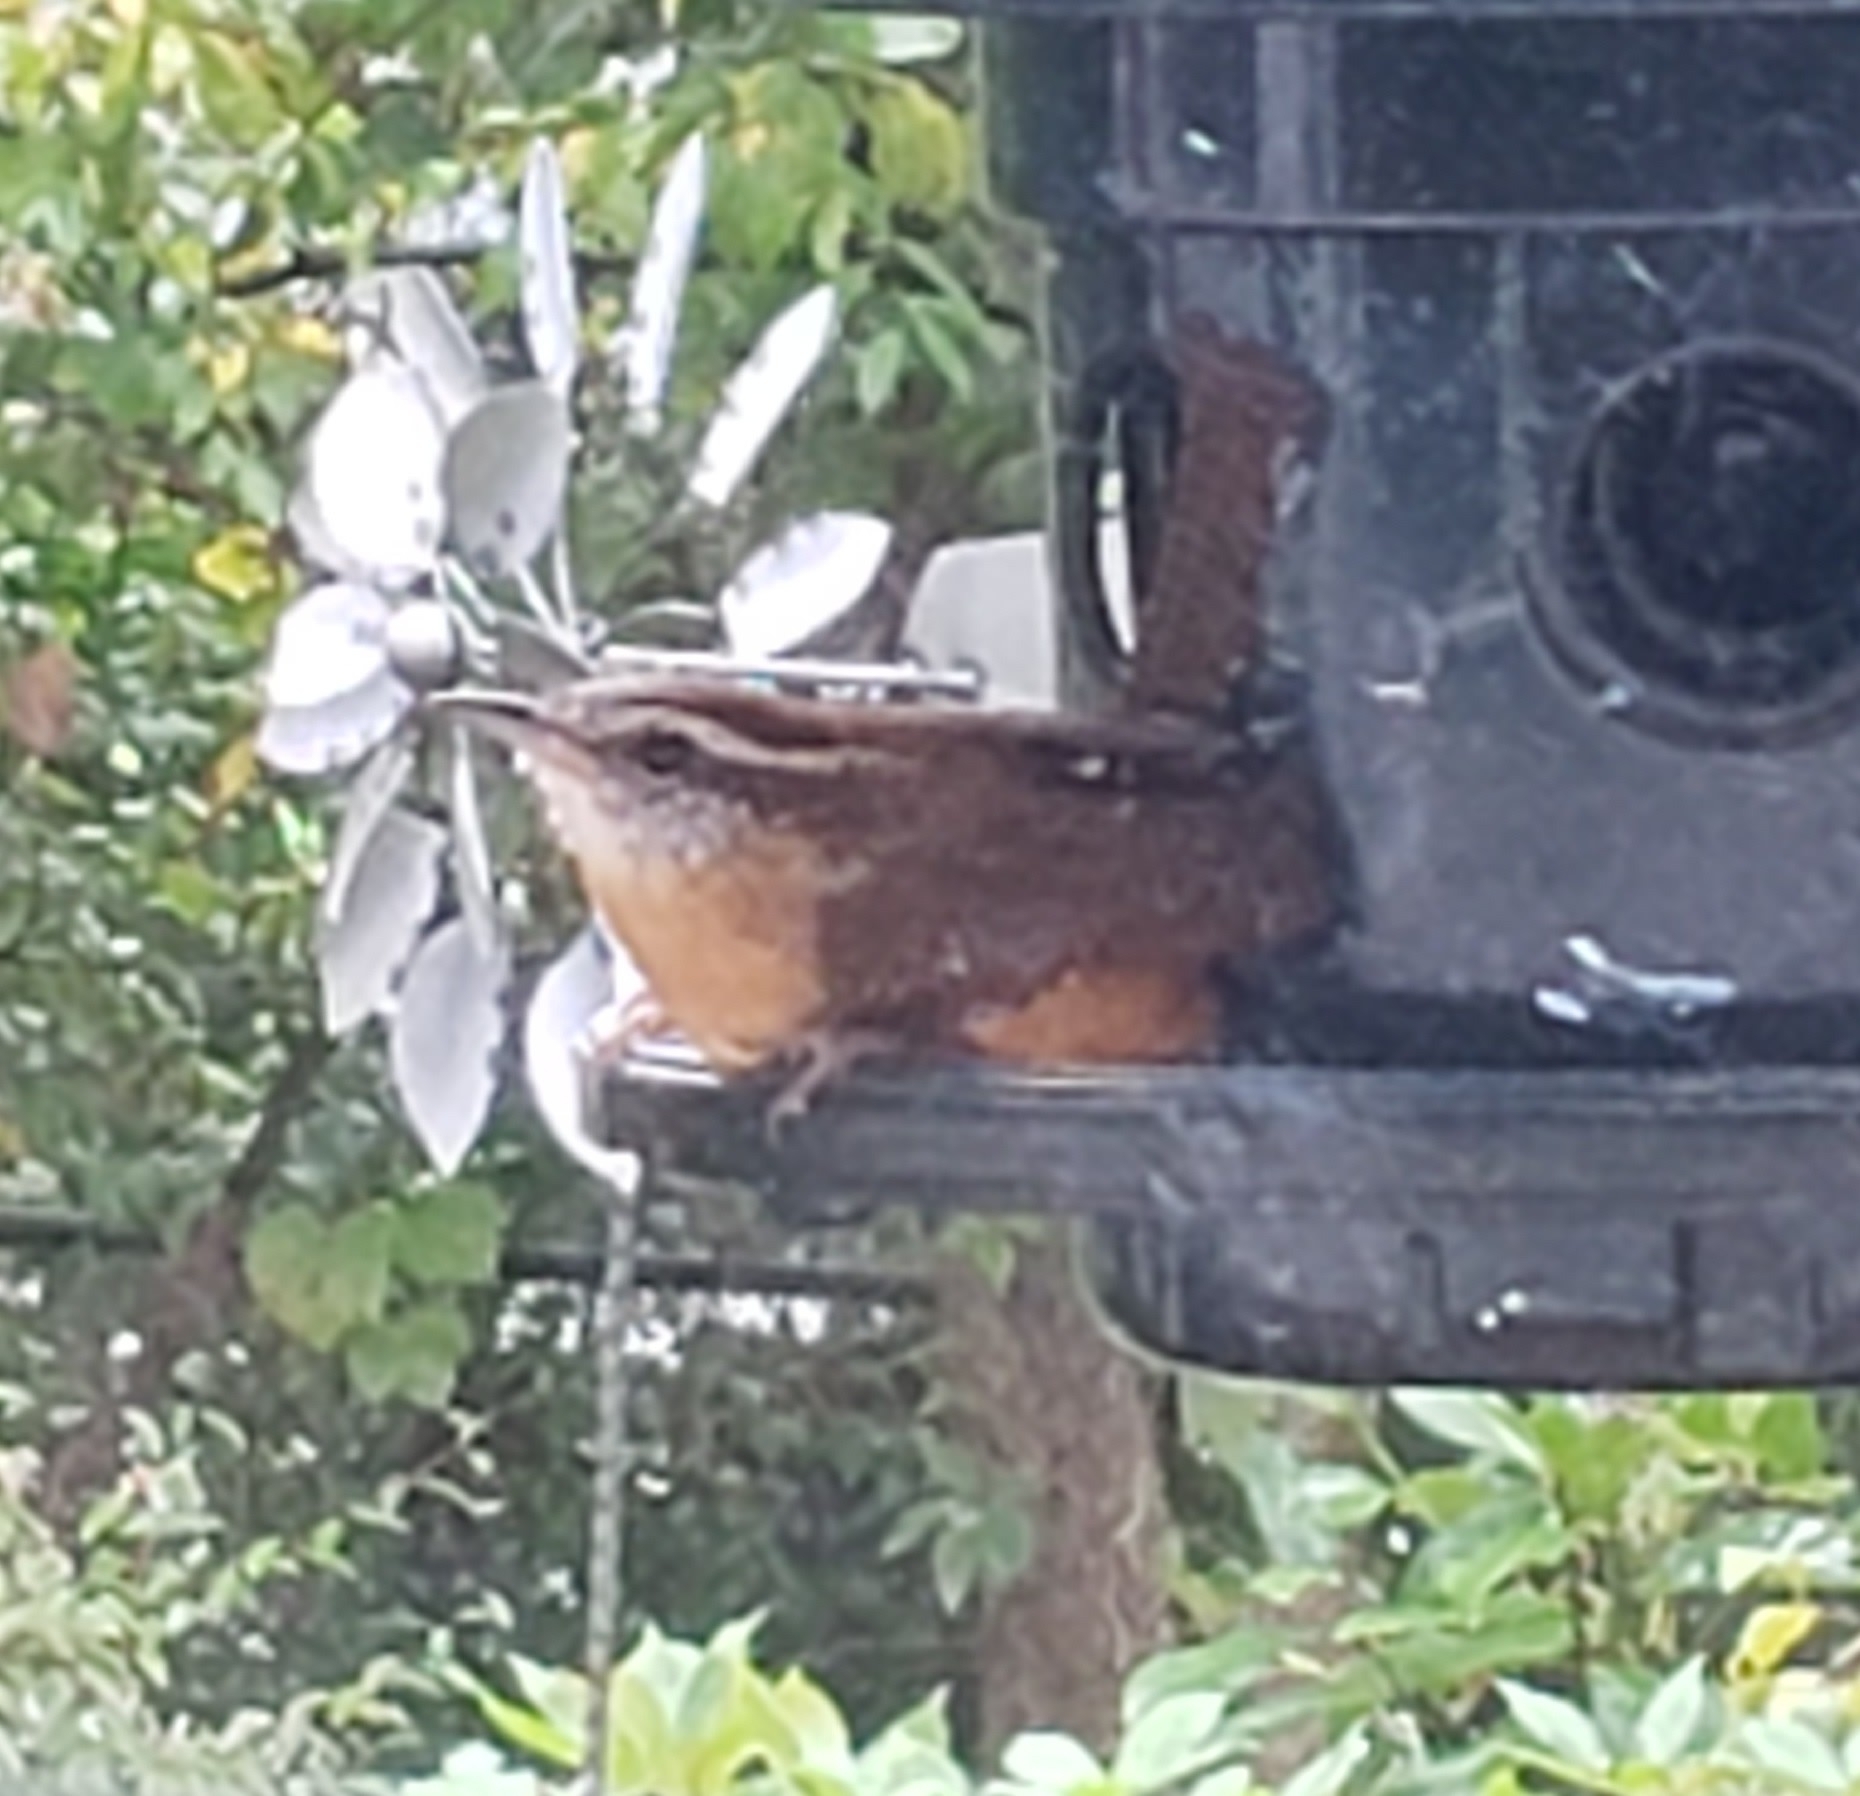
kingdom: Animalia
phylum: Chordata
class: Aves
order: Passeriformes
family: Troglodytidae
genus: Thryothorus
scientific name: Thryothorus ludovicianus
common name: Carolina wren
